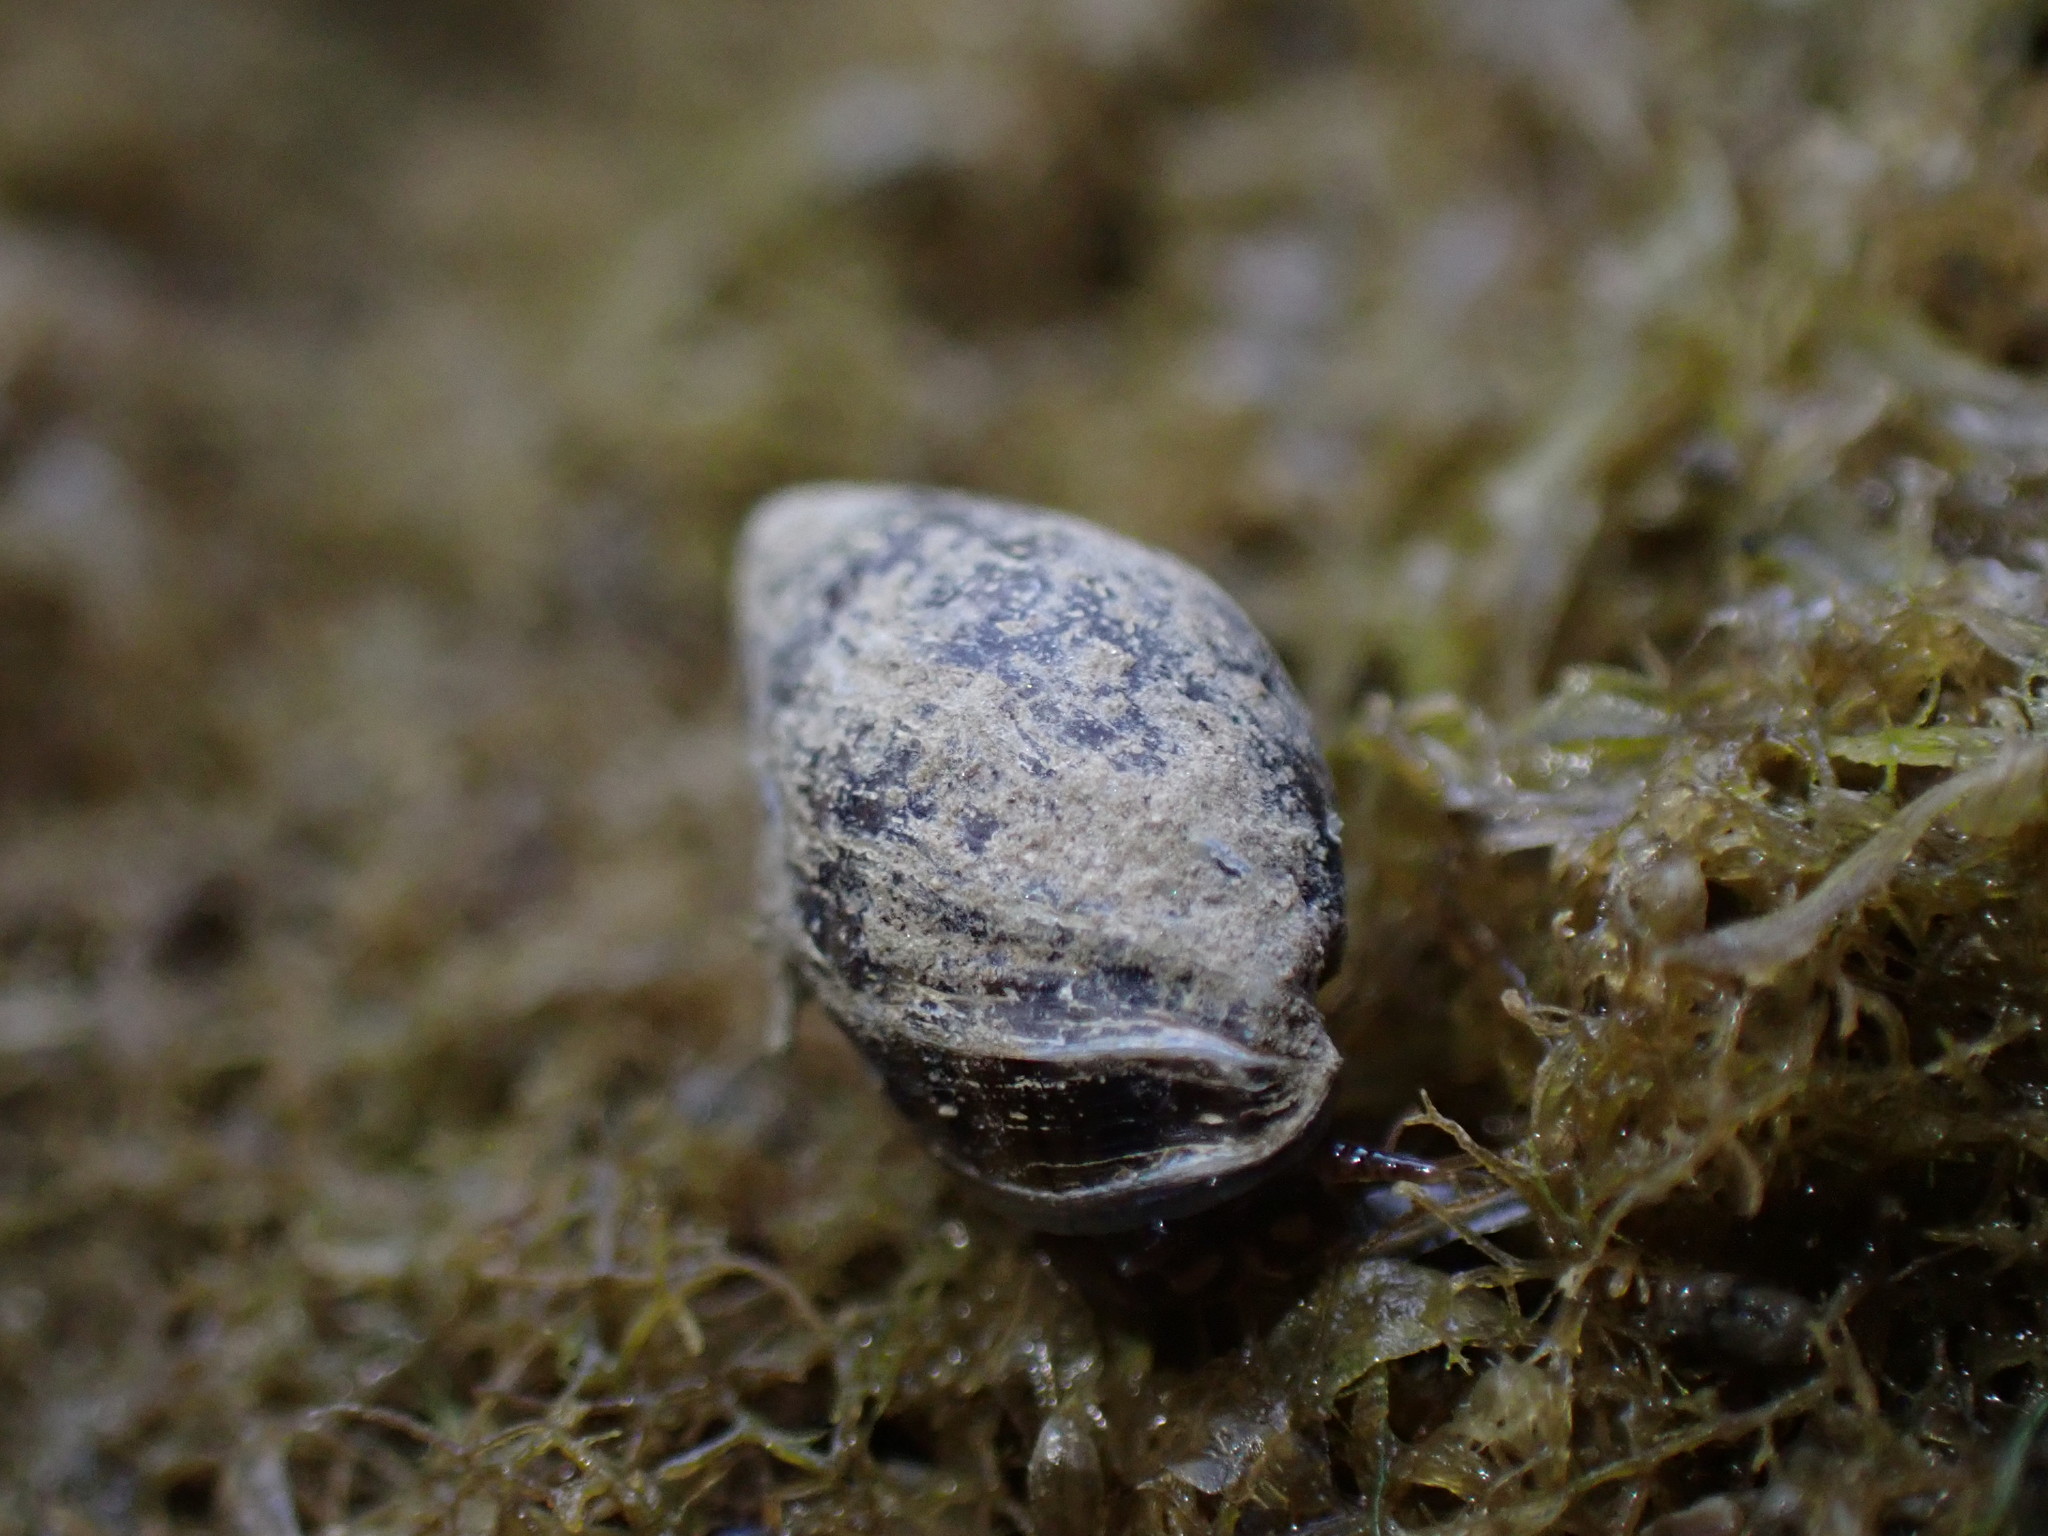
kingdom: Animalia
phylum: Mollusca
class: Gastropoda
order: Ellobiida
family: Ellobiidae
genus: Pleuroloba
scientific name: Pleuroloba costellaris
